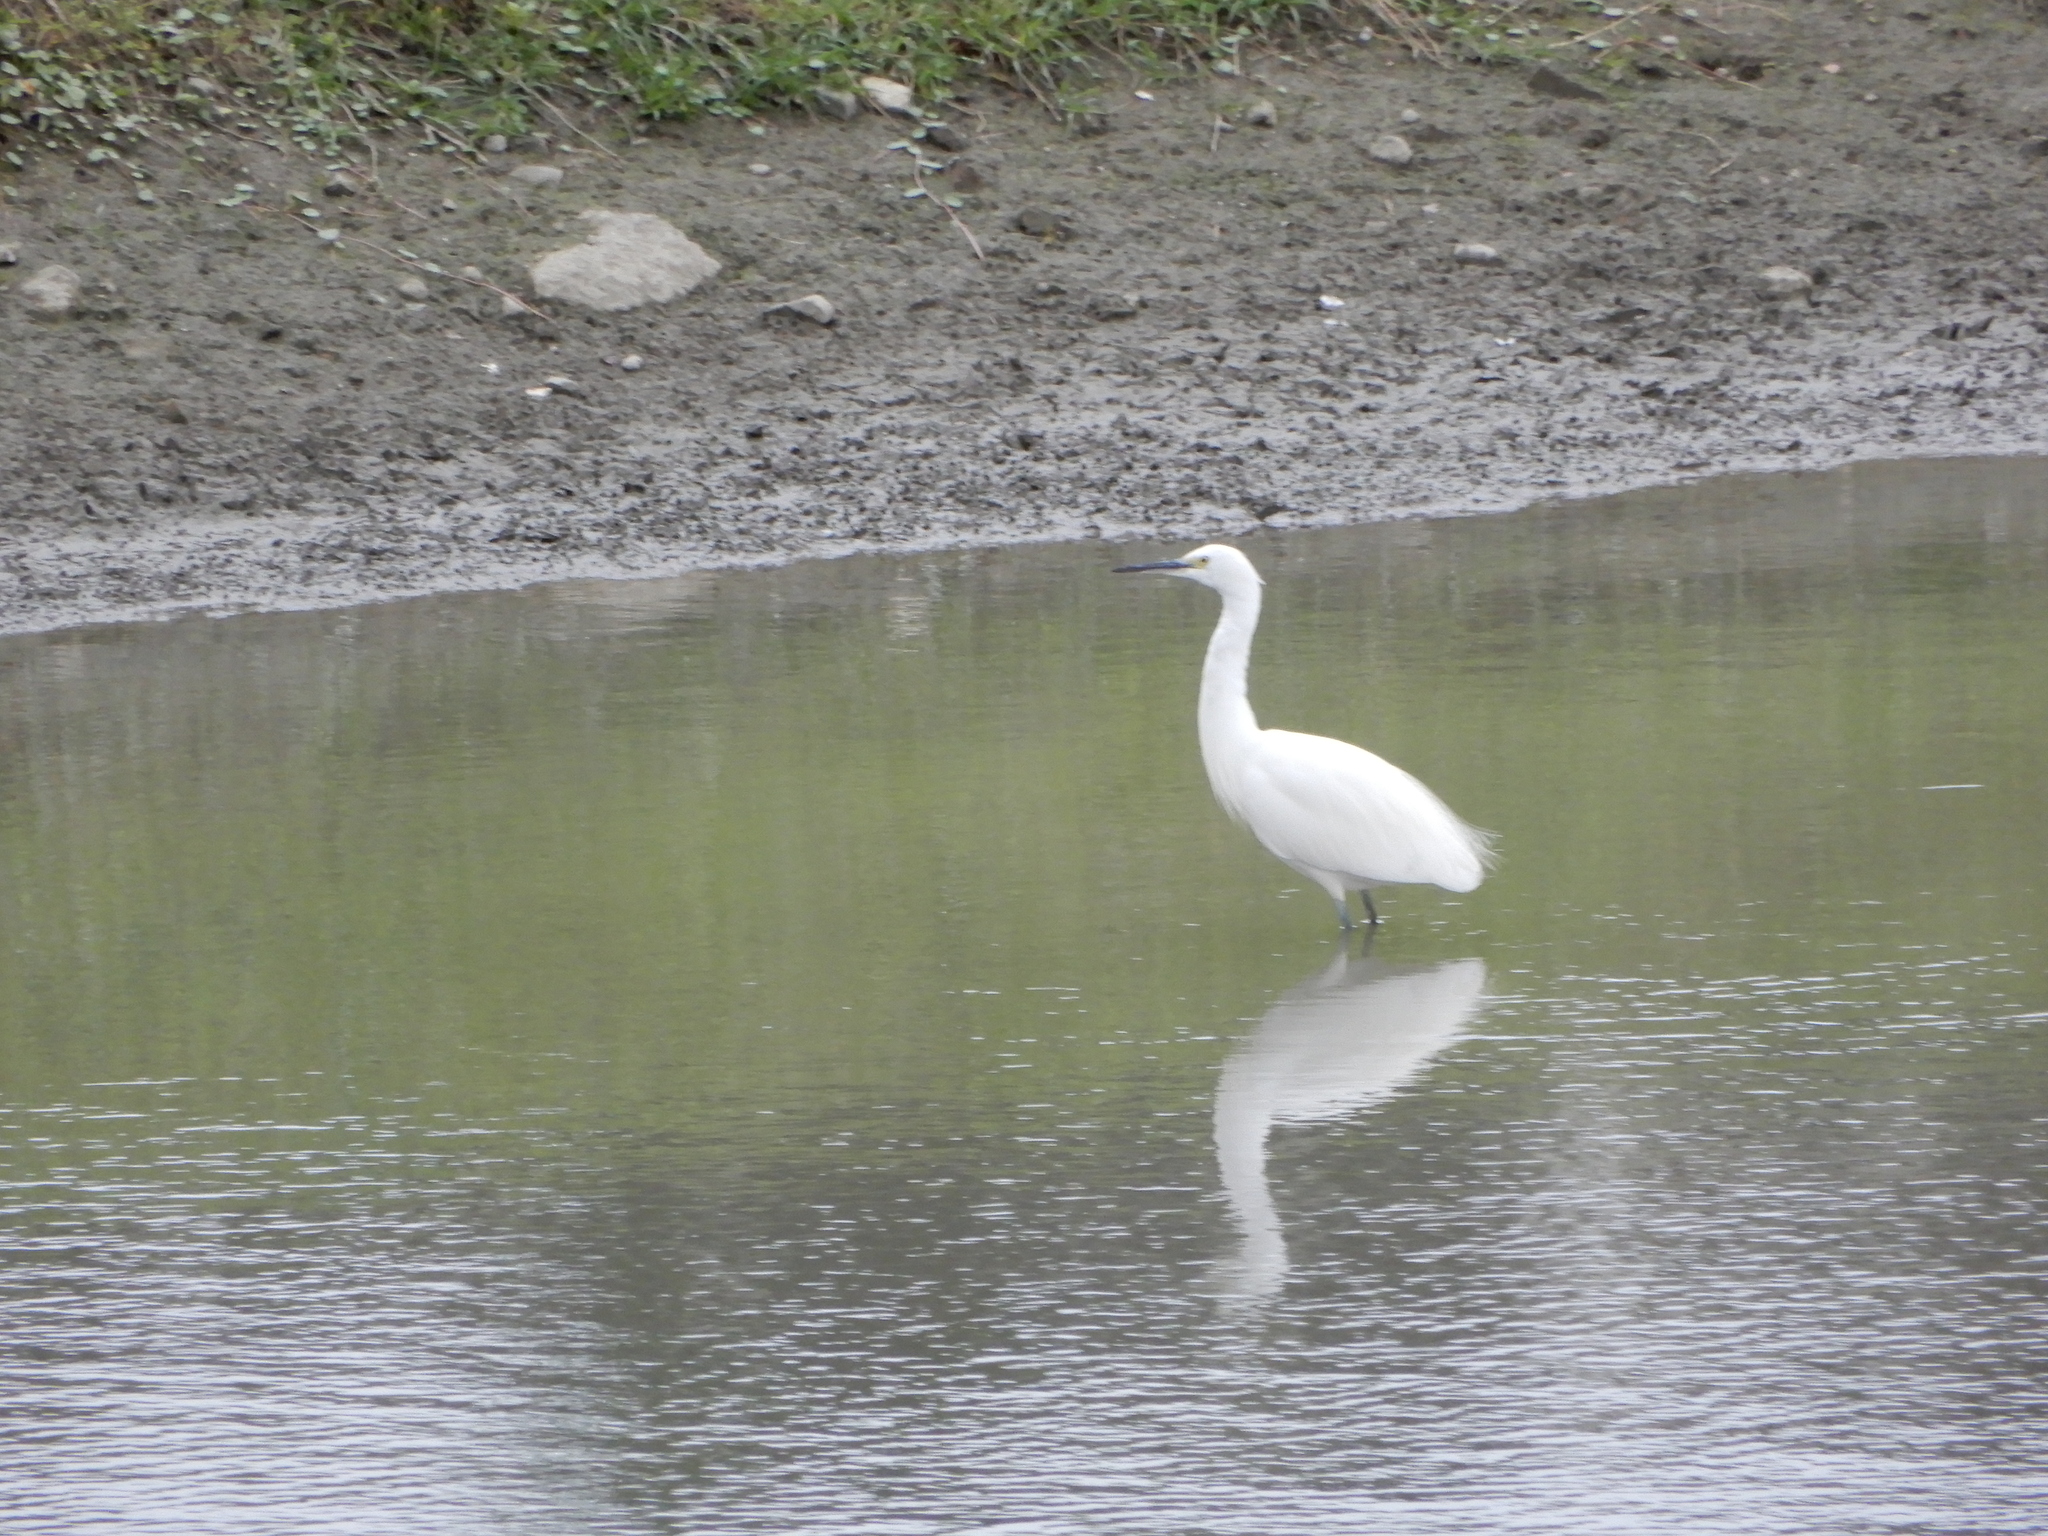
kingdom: Animalia
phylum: Chordata
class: Aves
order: Pelecaniformes
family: Ardeidae
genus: Egretta
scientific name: Egretta garzetta
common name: Little egret
